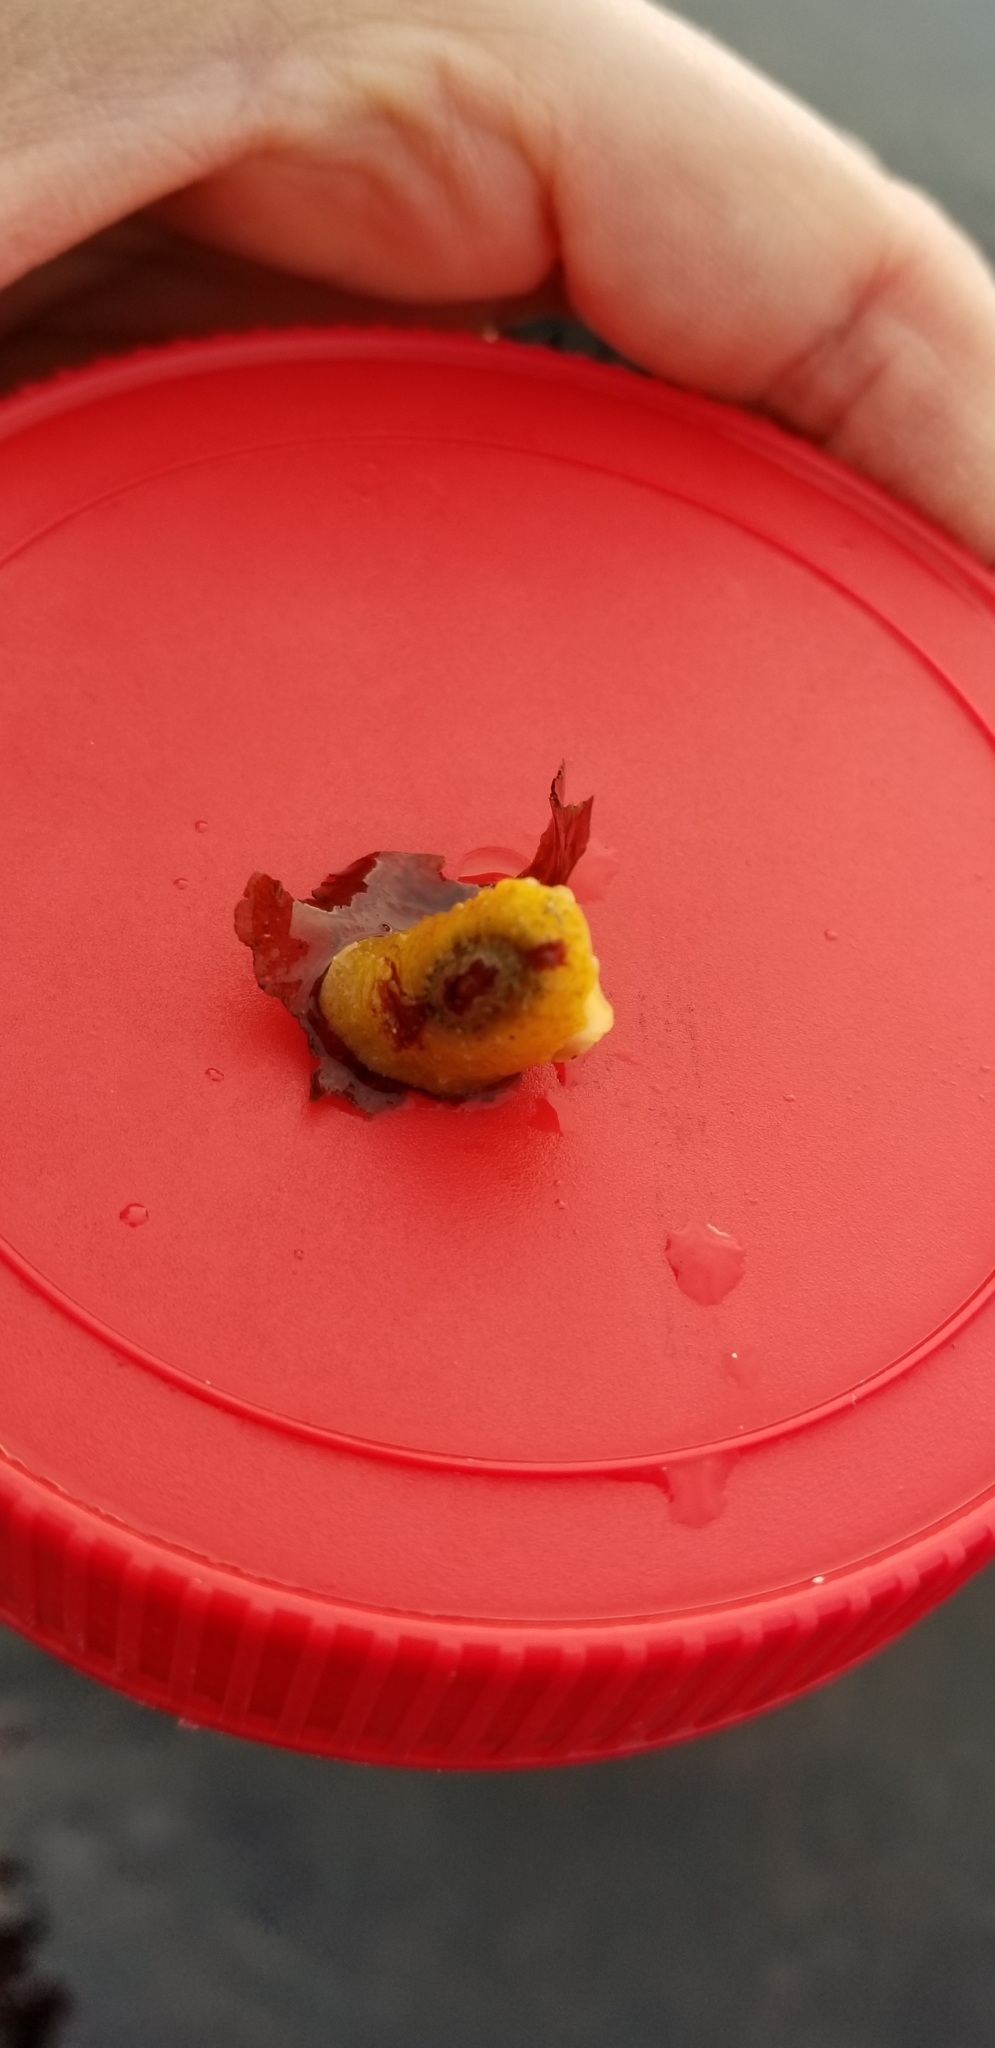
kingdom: Animalia
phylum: Mollusca
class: Gastropoda
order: Lepetellida
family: Fissurellidae
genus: Fissurellidea
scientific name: Fissurellidea bimaculata
